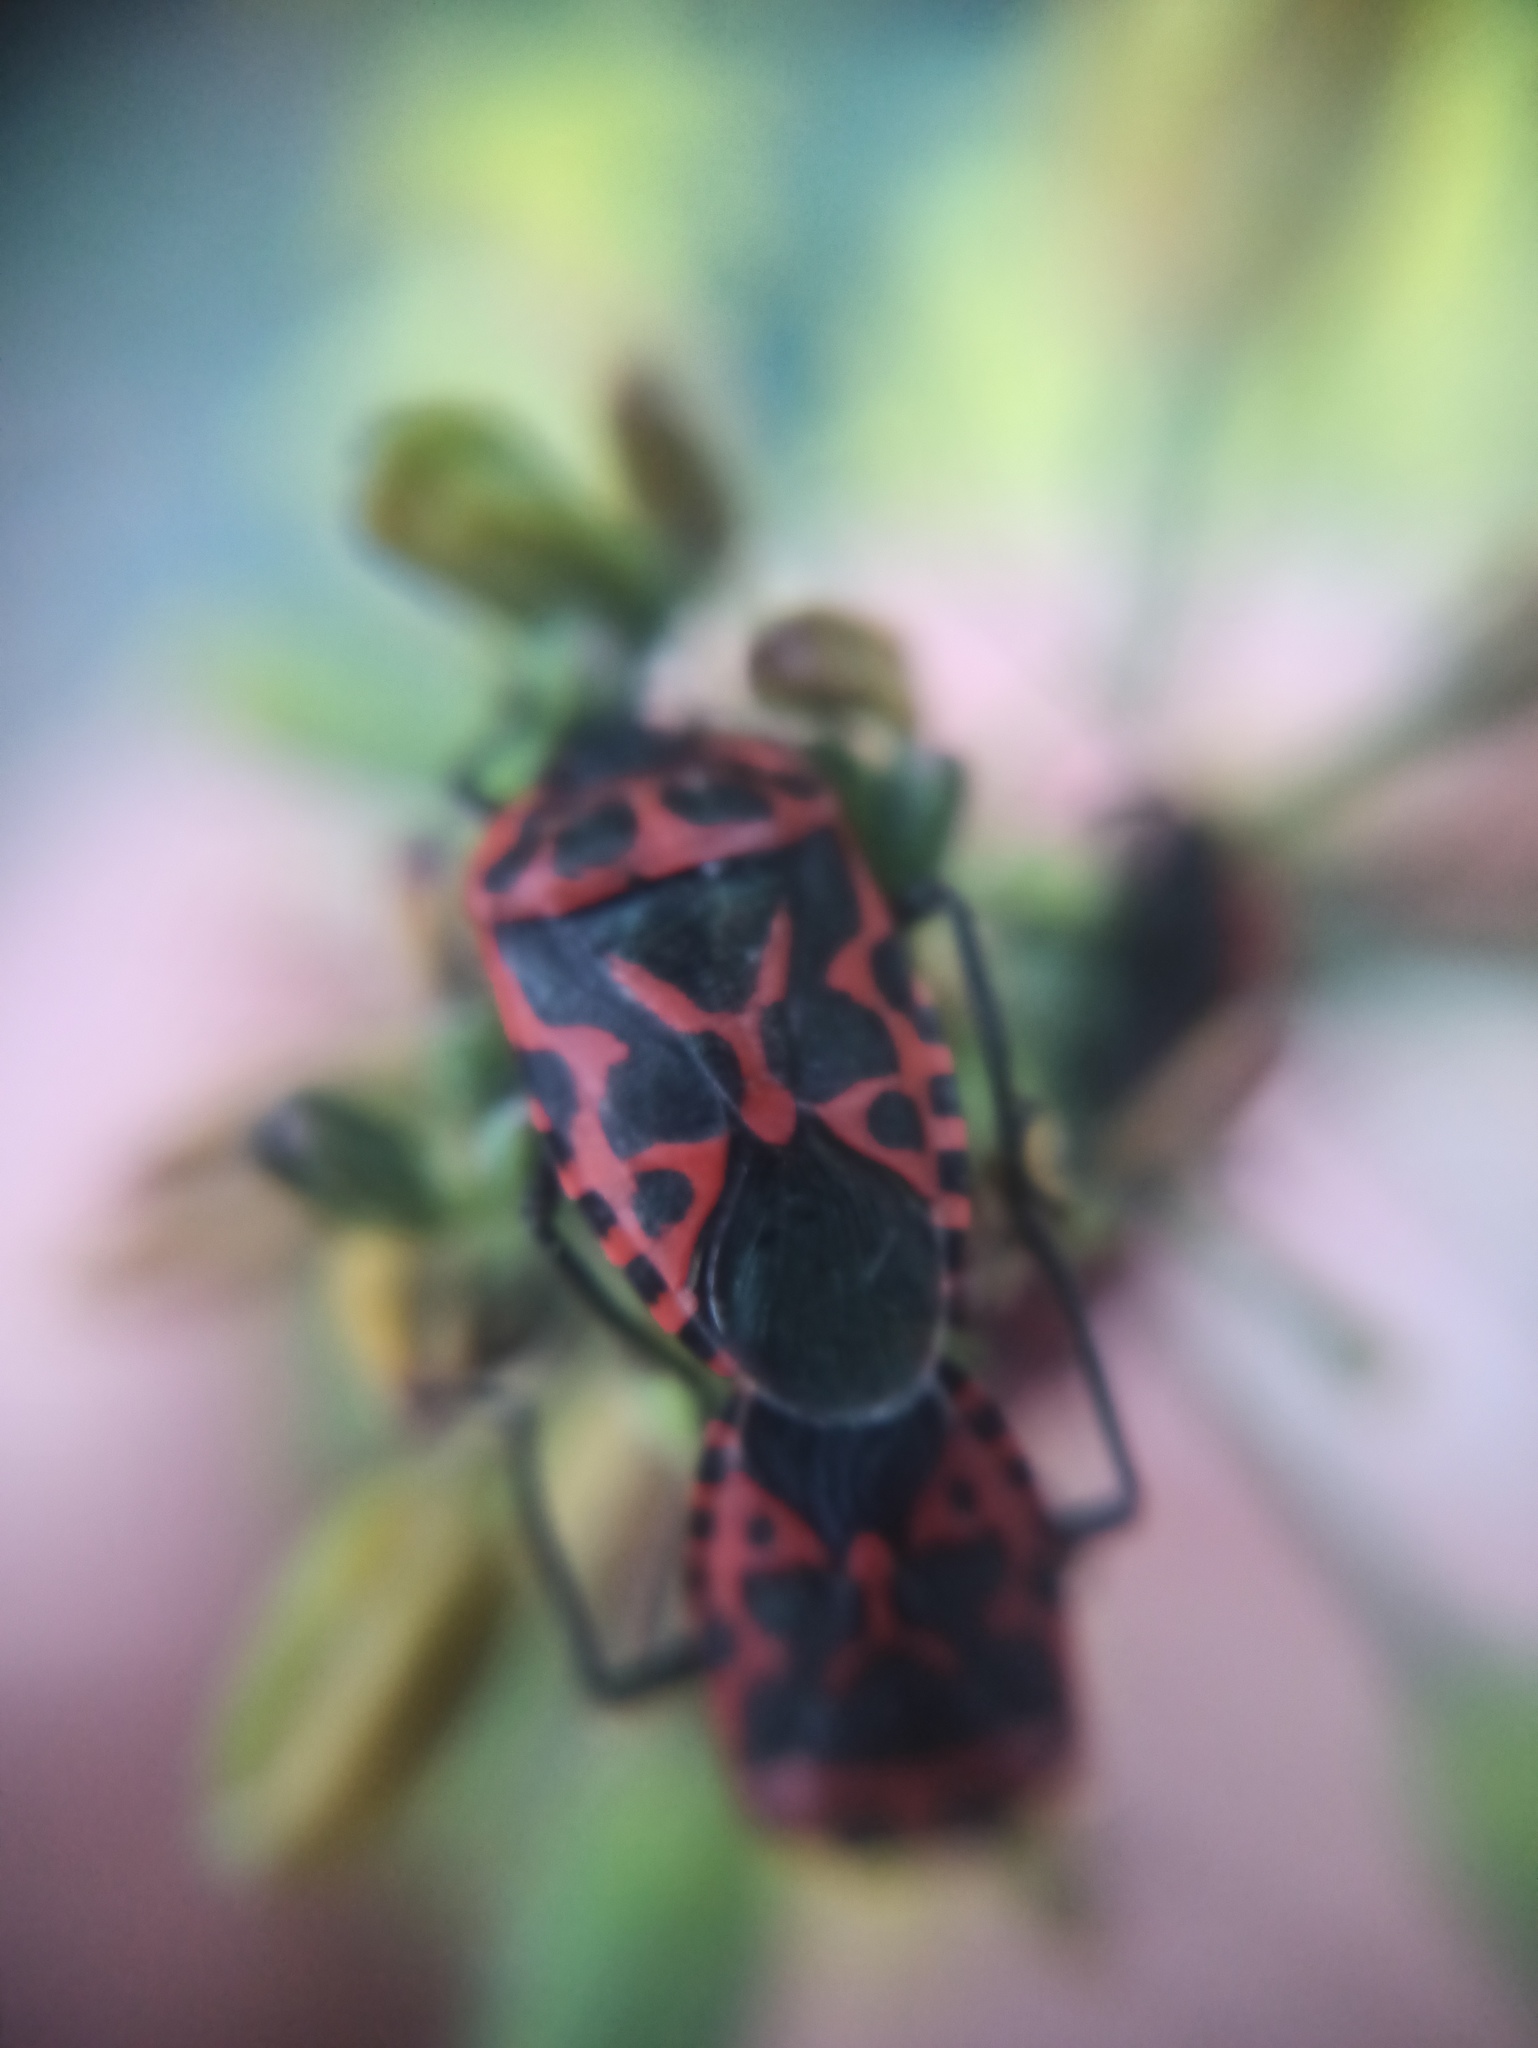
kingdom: Animalia
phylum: Arthropoda
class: Insecta
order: Hemiptera
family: Pentatomidae
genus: Eurydema
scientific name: Eurydema ventralis
